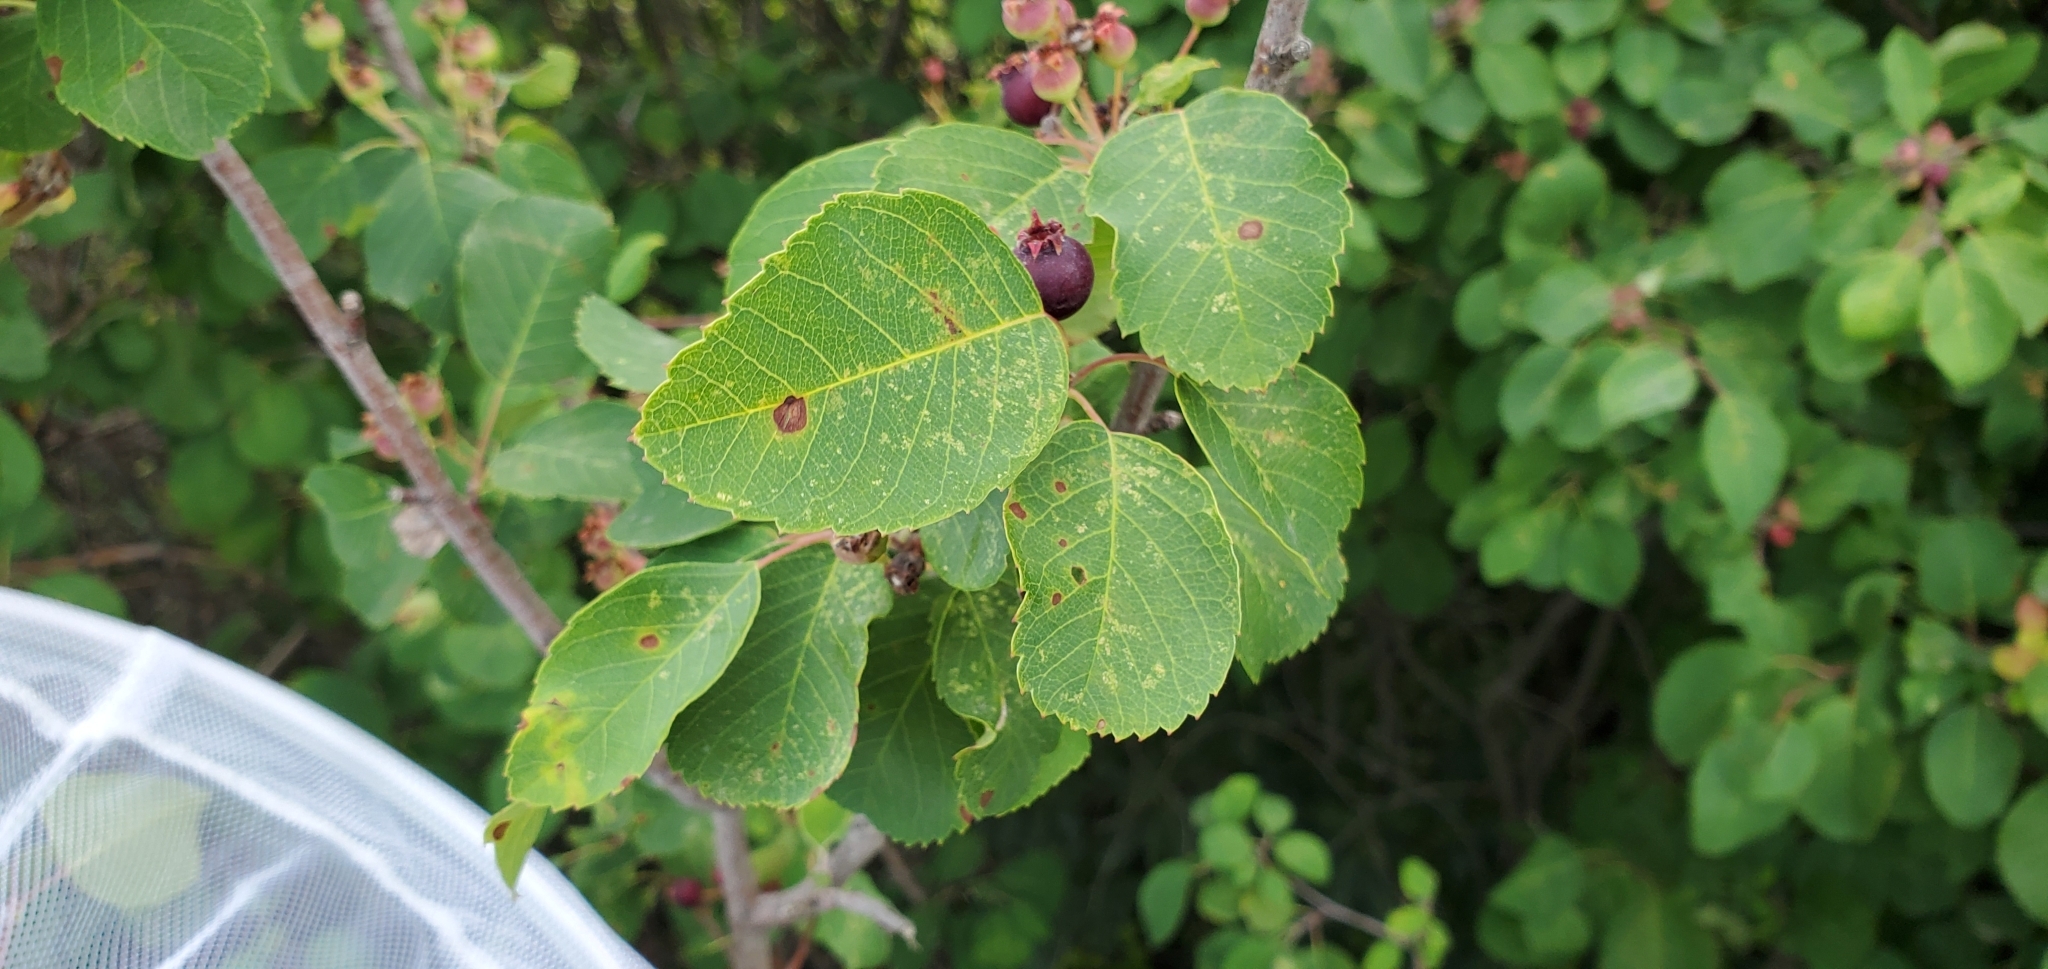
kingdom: Plantae
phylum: Tracheophyta
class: Magnoliopsida
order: Rosales
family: Rosaceae
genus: Amelanchier
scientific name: Amelanchier alnifolia
